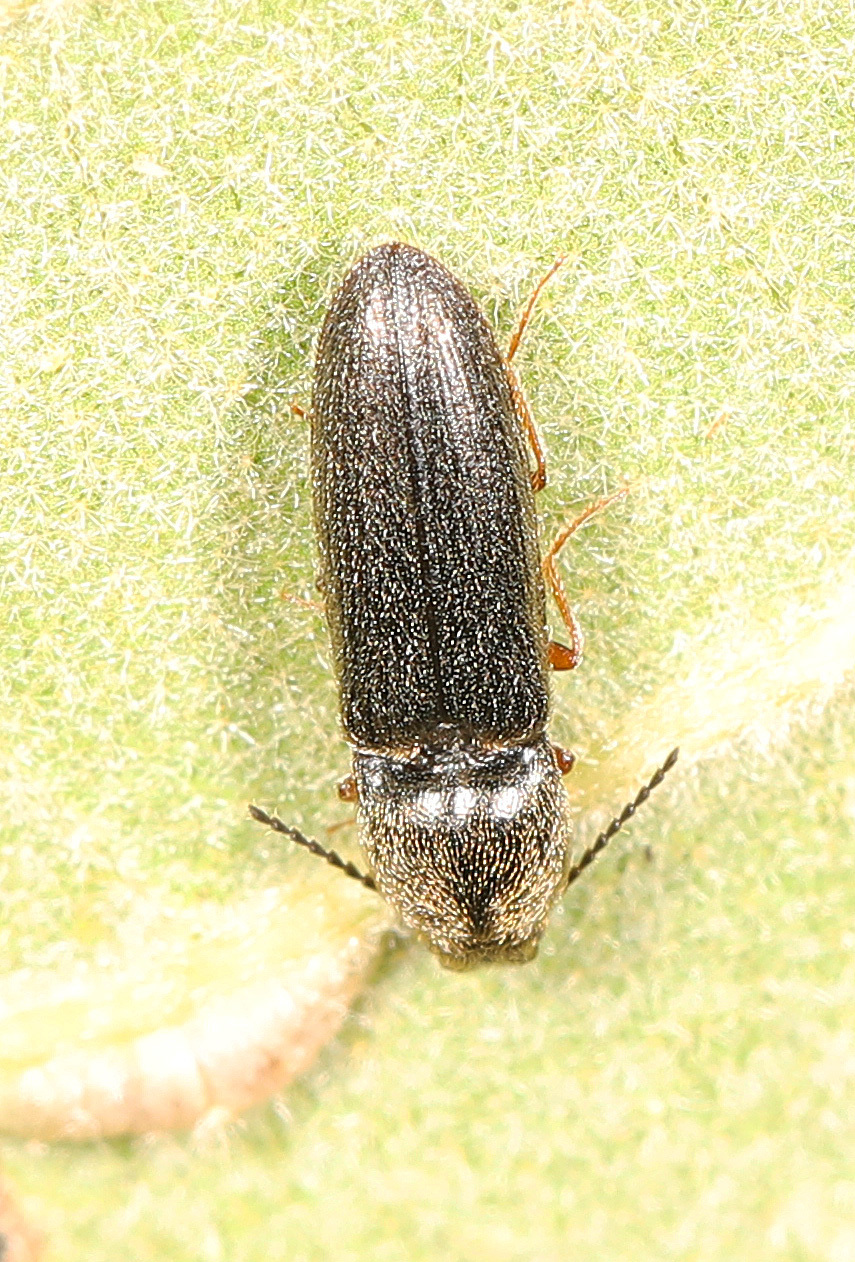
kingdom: Animalia
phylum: Arthropoda
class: Insecta
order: Coleoptera
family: Elateridae
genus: Limonius
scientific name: Limonius quercinus
